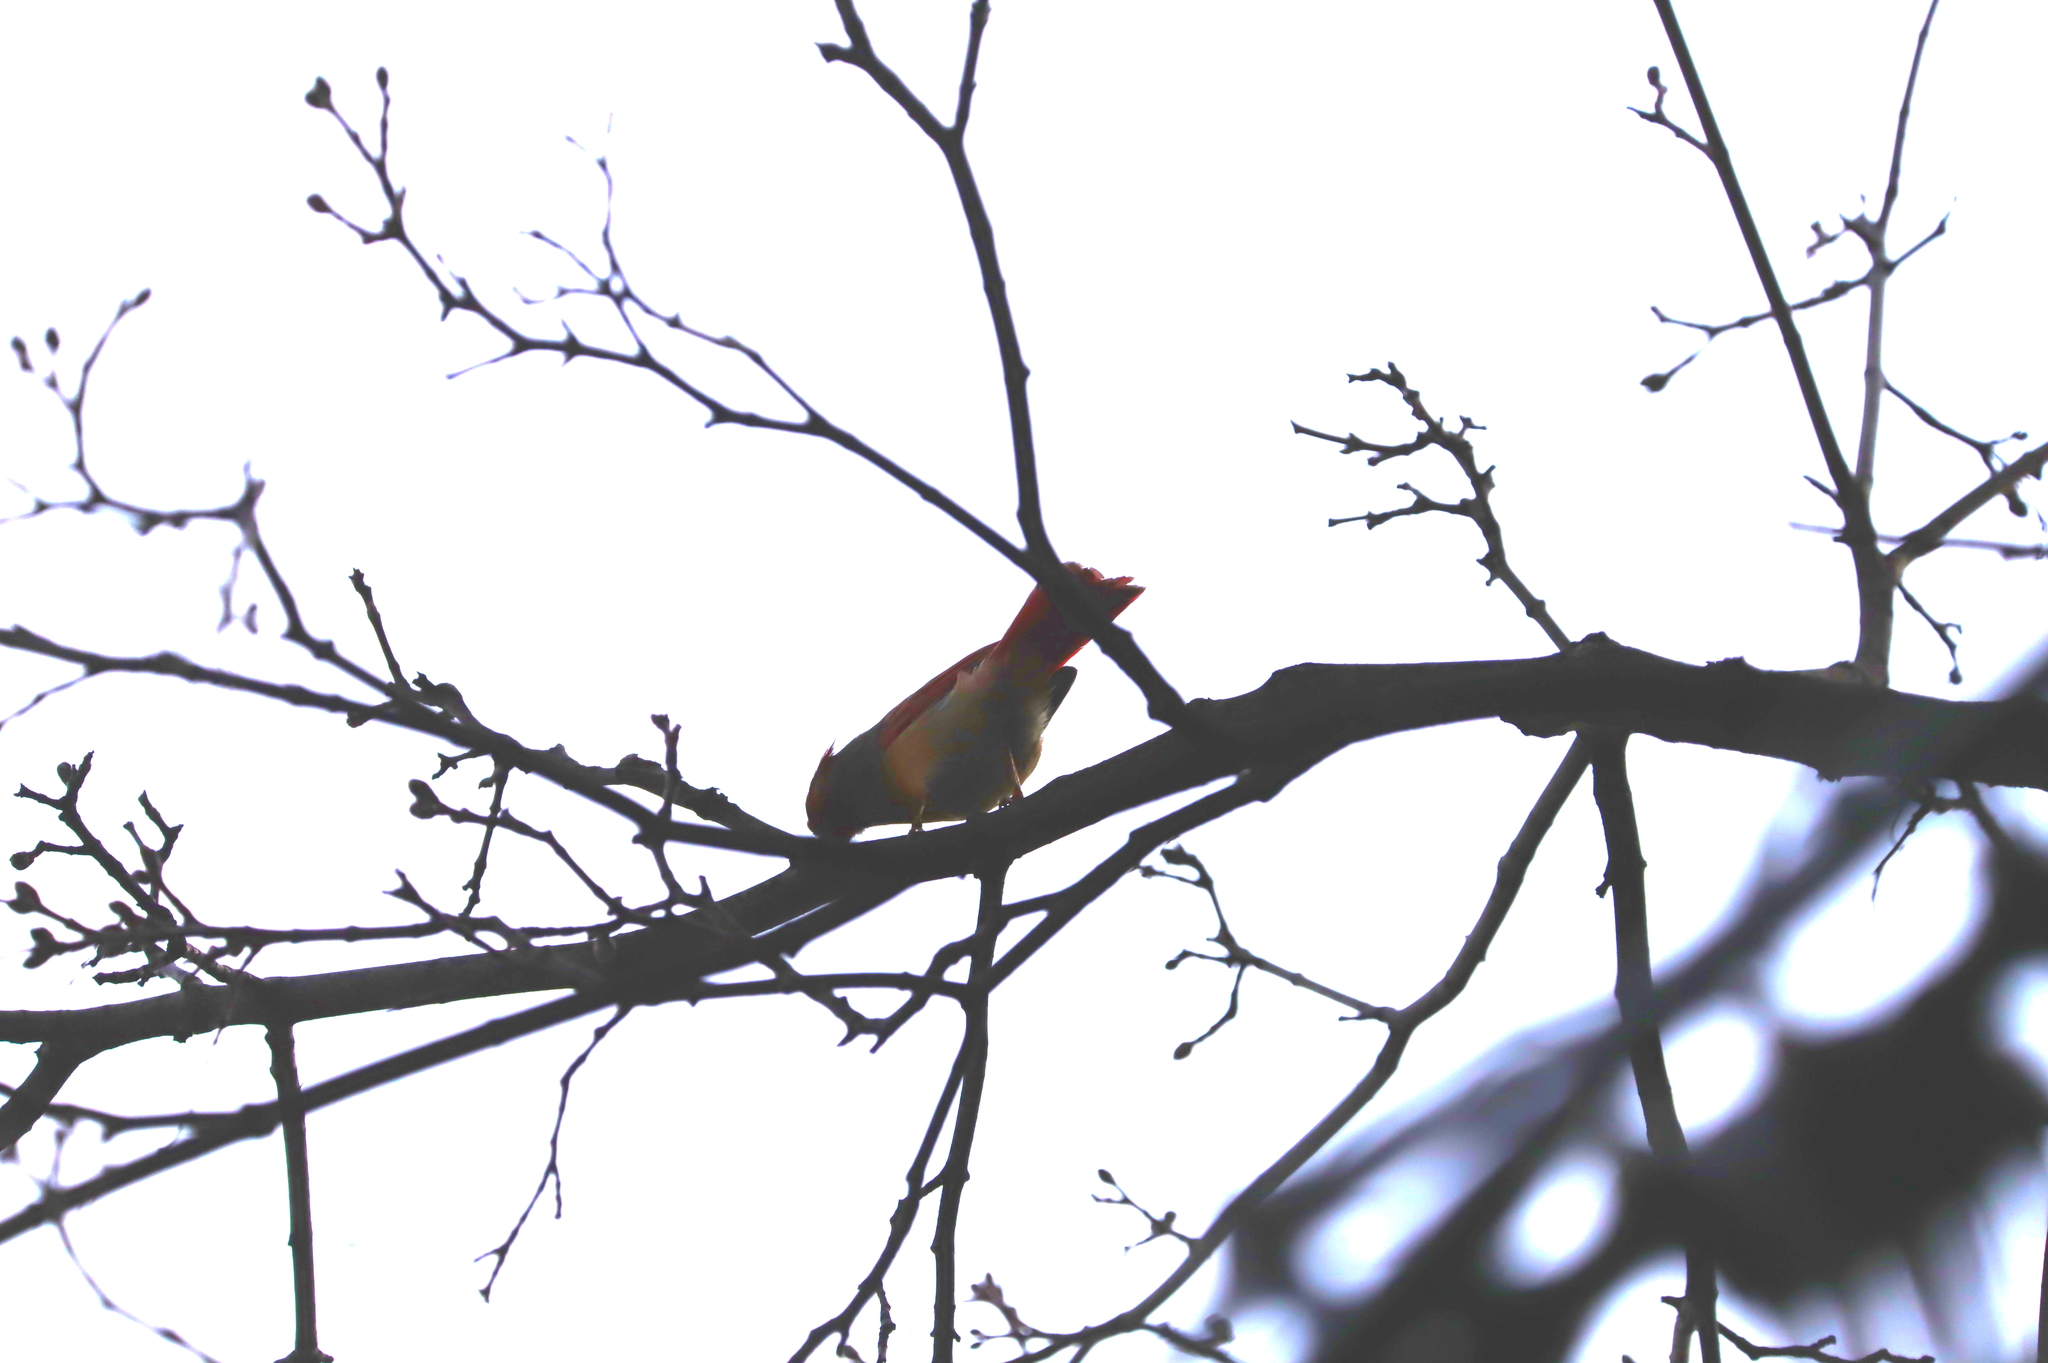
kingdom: Animalia
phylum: Chordata
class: Aves
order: Passeriformes
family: Cardinalidae
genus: Cardinalis
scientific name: Cardinalis cardinalis
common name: Northern cardinal
